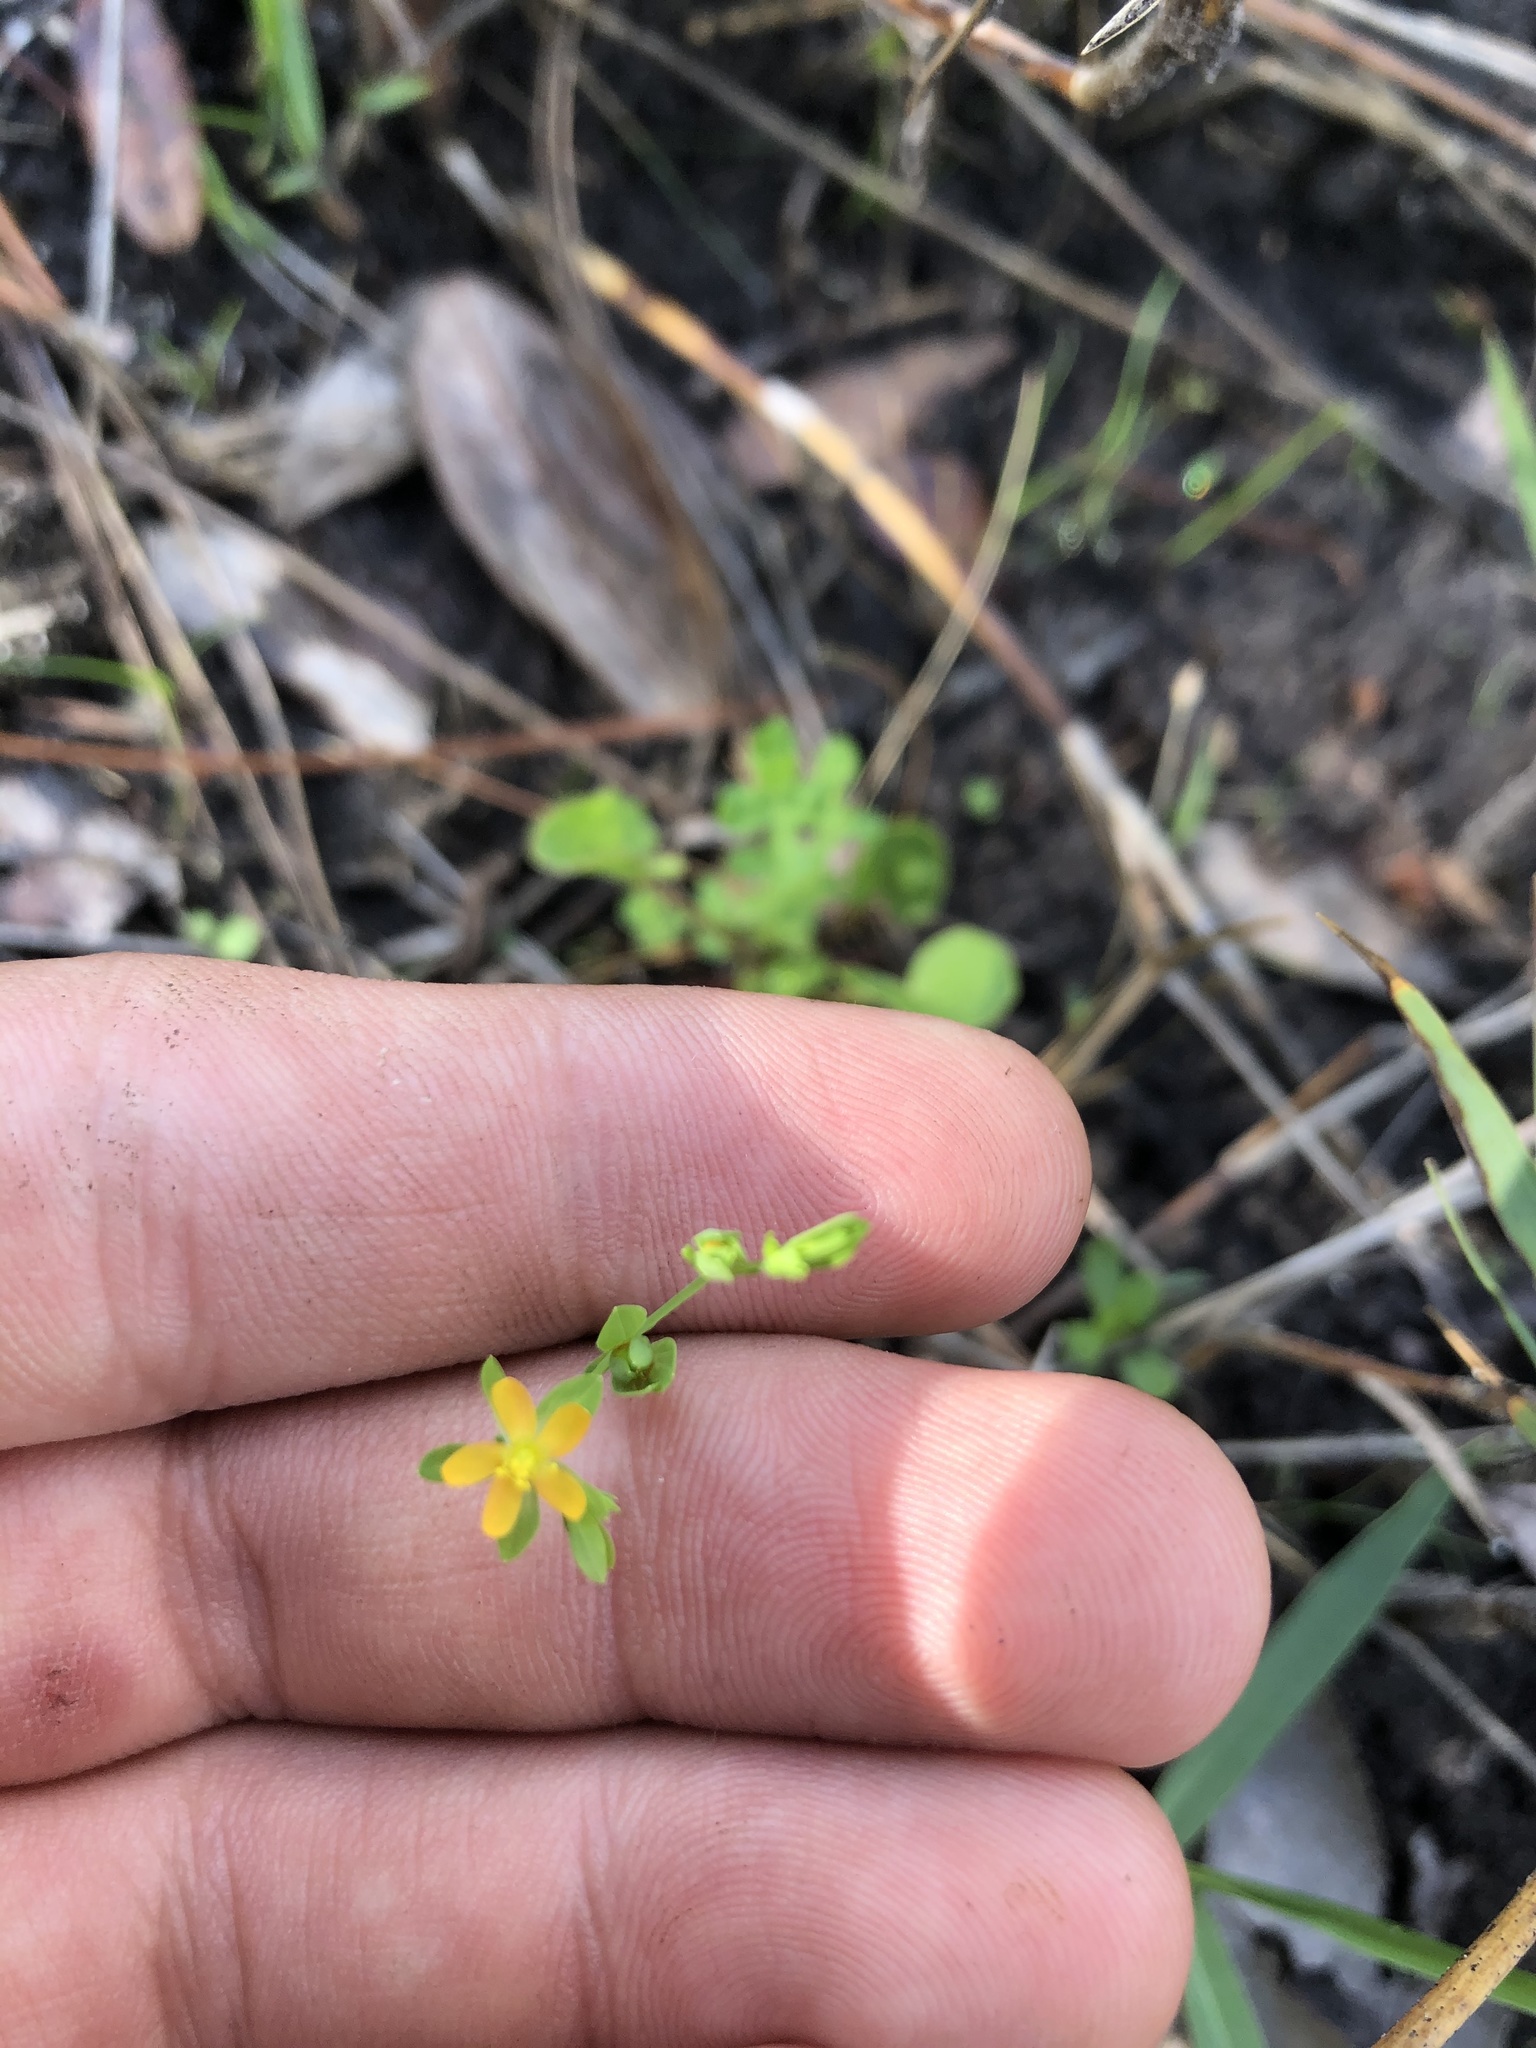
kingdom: Plantae
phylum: Tracheophyta
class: Magnoliopsida
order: Malpighiales
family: Hypericaceae
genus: Hypericum
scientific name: Hypericum mutilum
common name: Dwarf st. john's-wort
